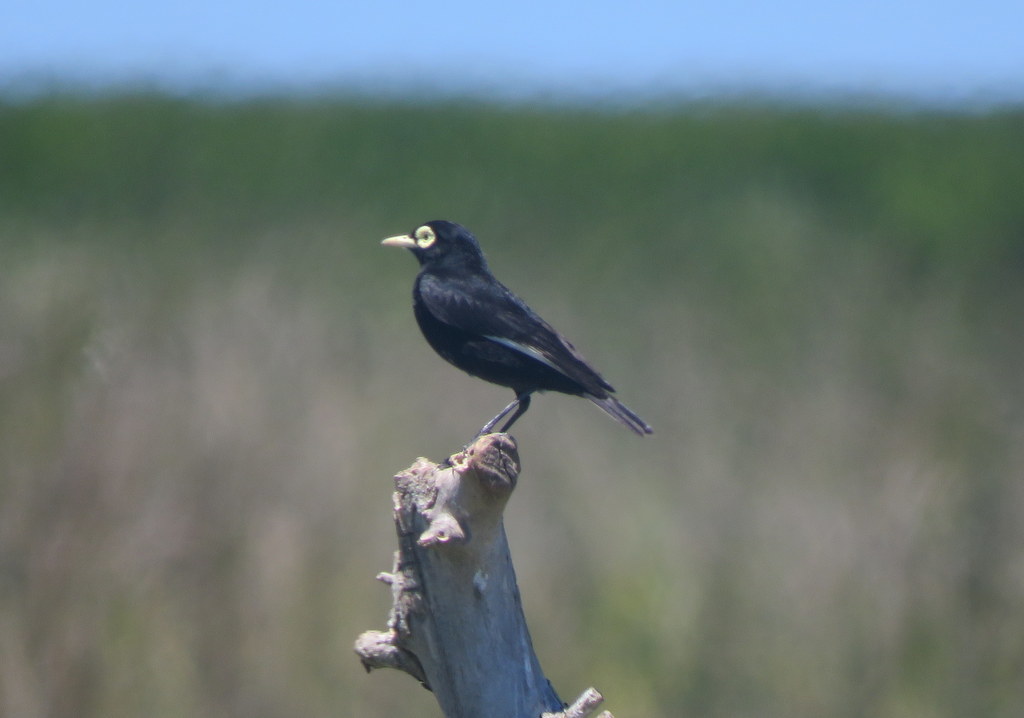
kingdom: Animalia
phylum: Chordata
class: Aves
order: Passeriformes
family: Tyrannidae
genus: Hymenops
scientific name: Hymenops perspicillatus
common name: Spectacled tyrant
